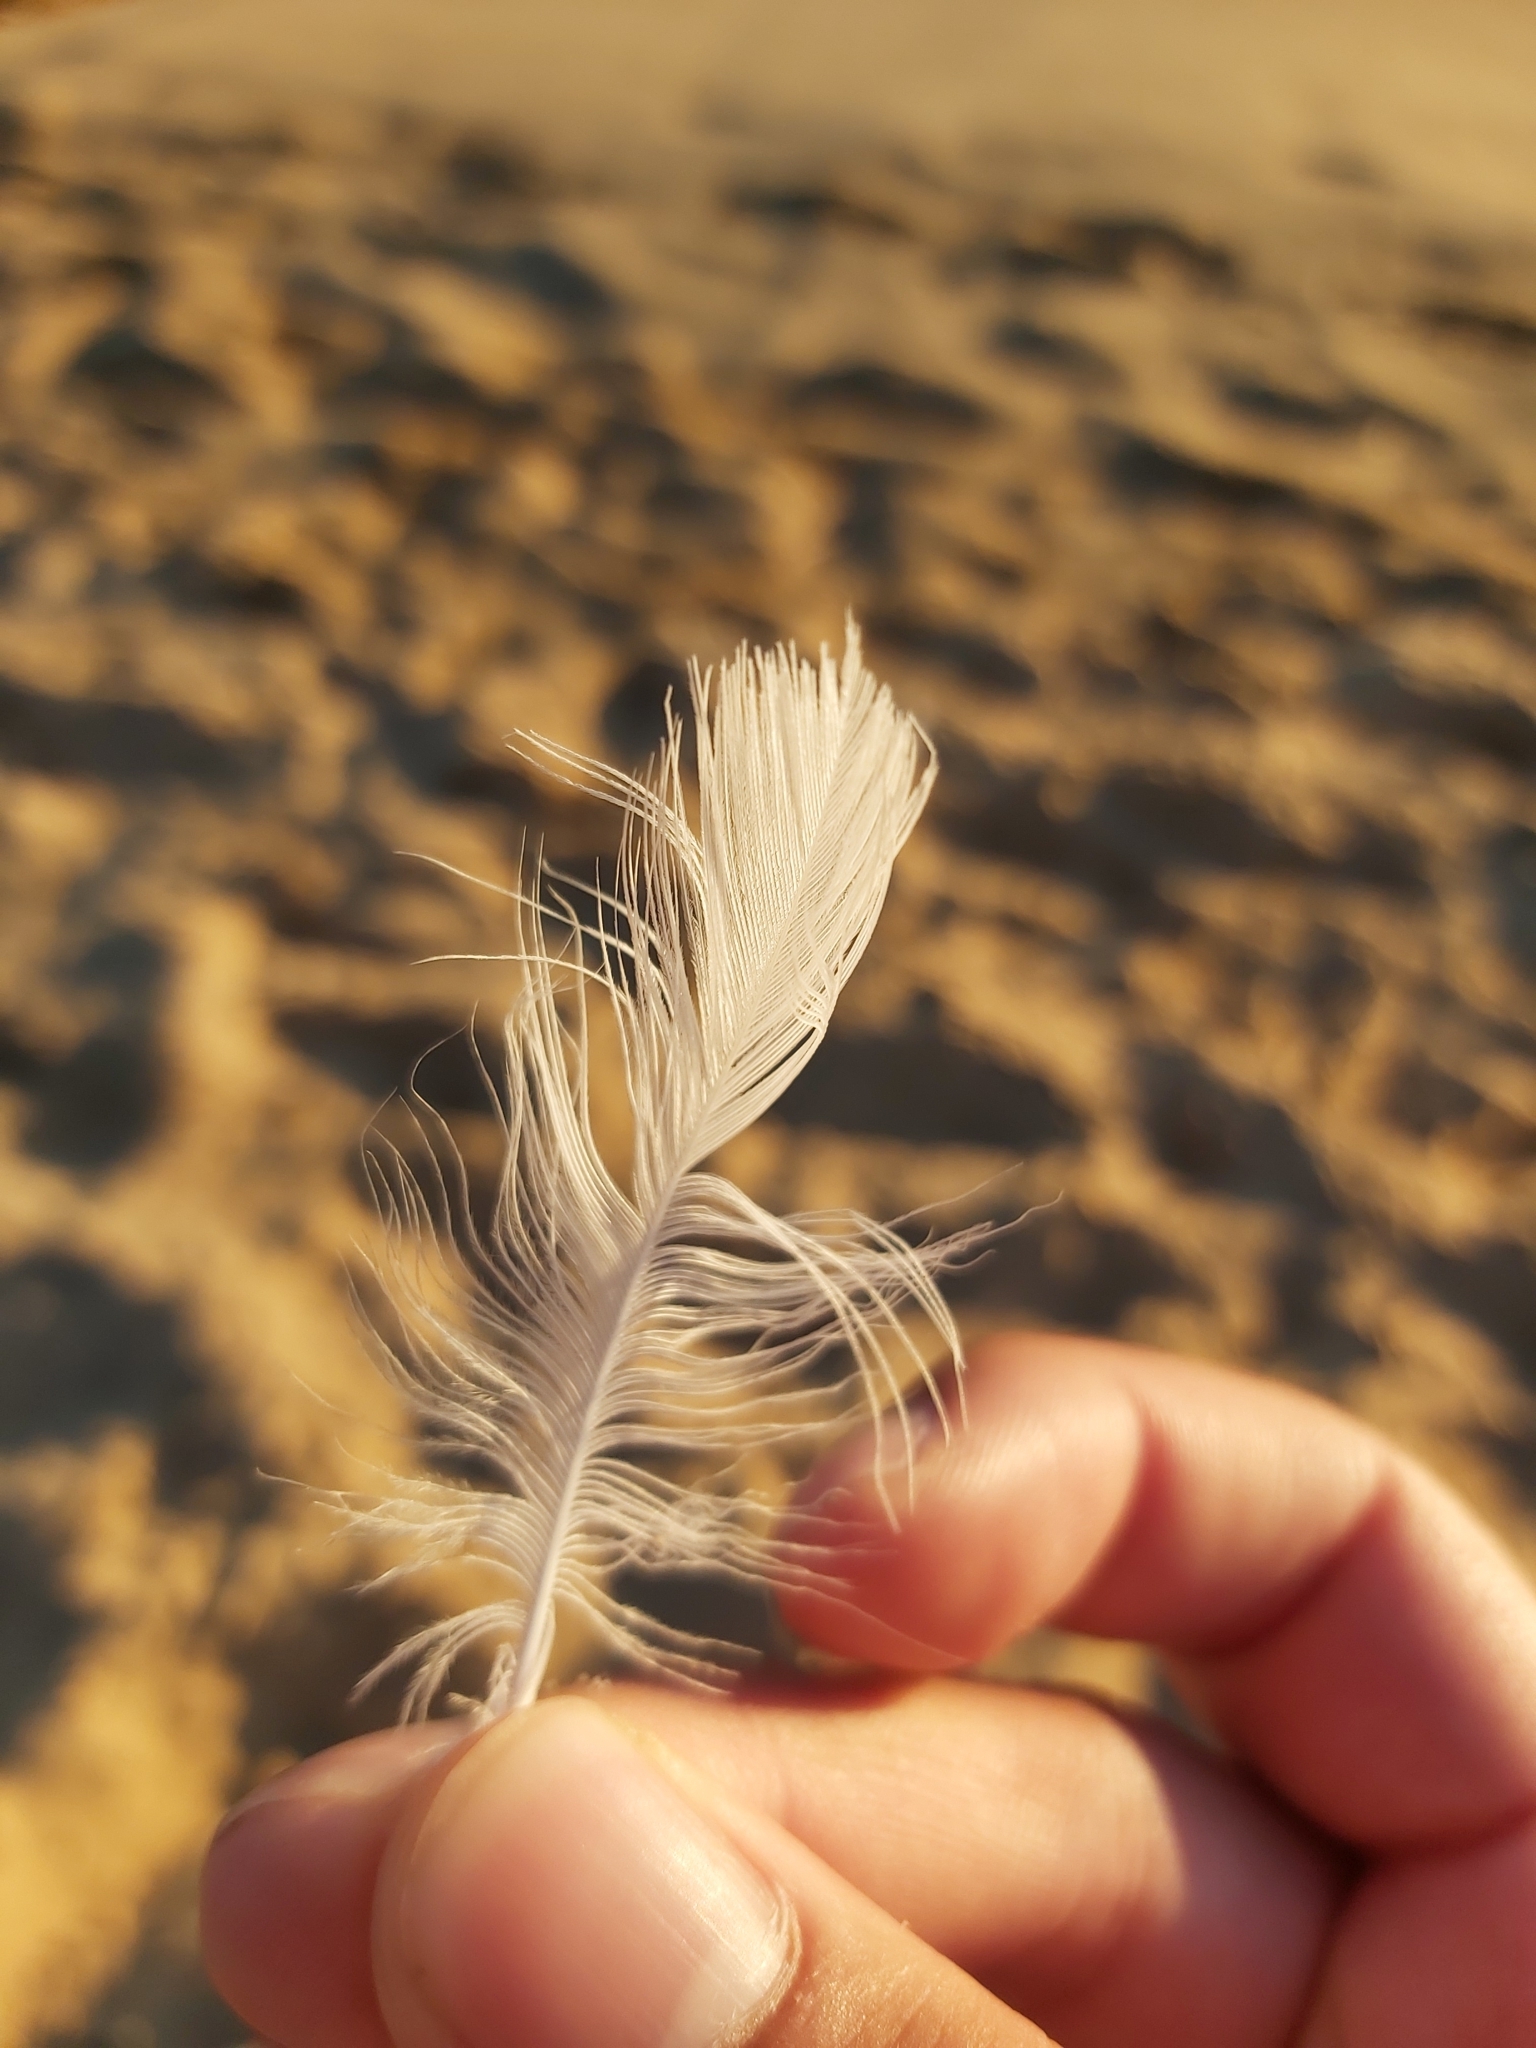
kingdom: Animalia
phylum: Chordata
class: Aves
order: Charadriiformes
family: Laridae
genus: Chroicocephalus
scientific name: Chroicocephalus novaehollandiae
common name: Silver gull
